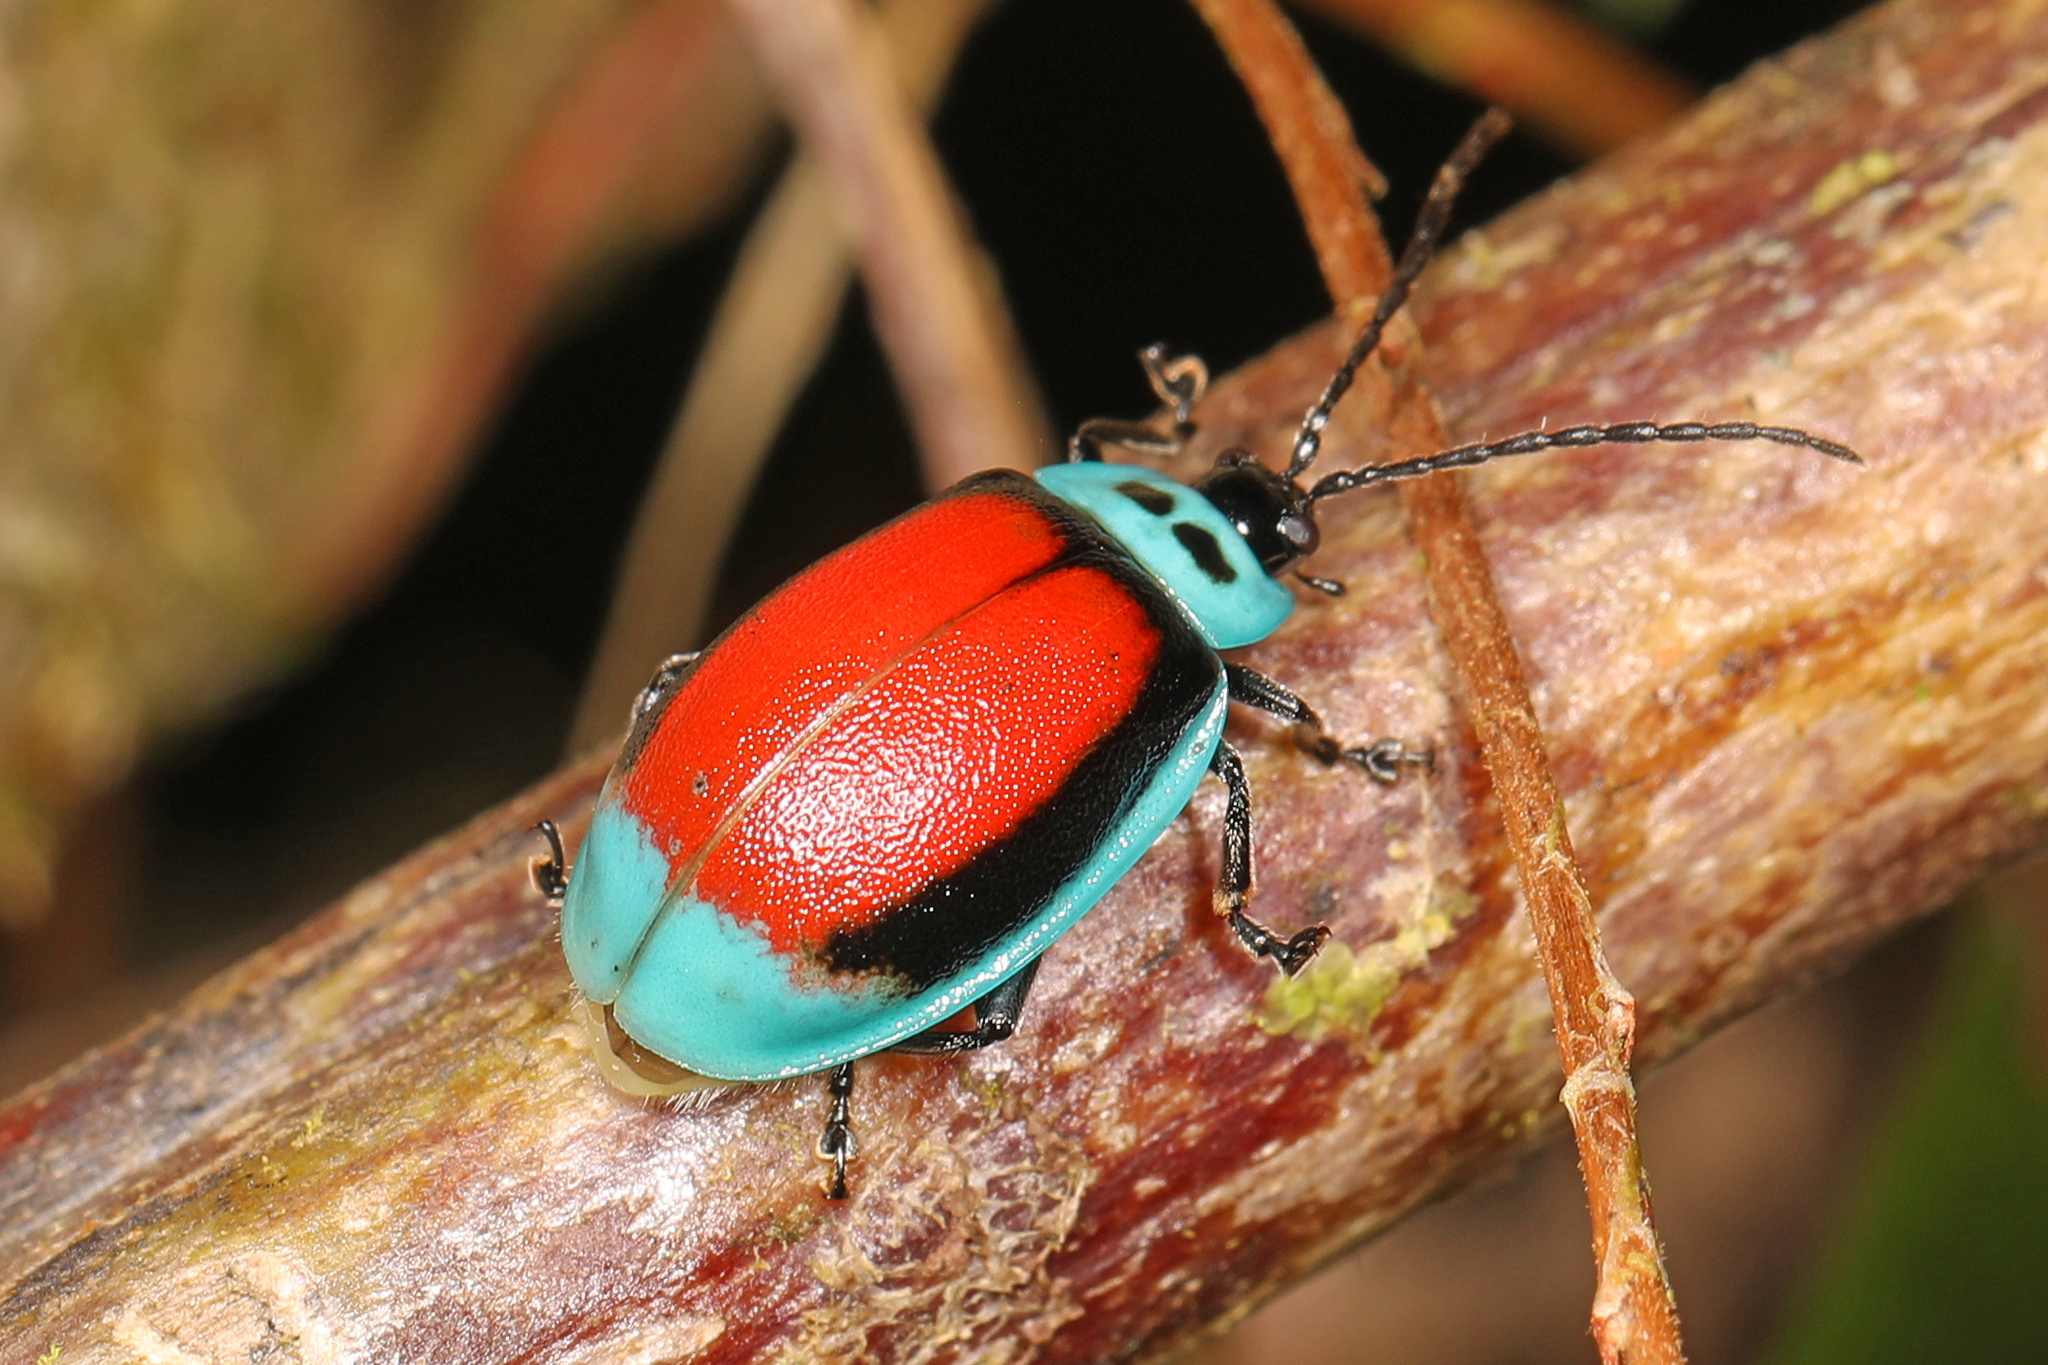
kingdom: Animalia
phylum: Arthropoda
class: Insecta
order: Coleoptera
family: Chrysomelidae
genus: Aspicela
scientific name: Aspicela
